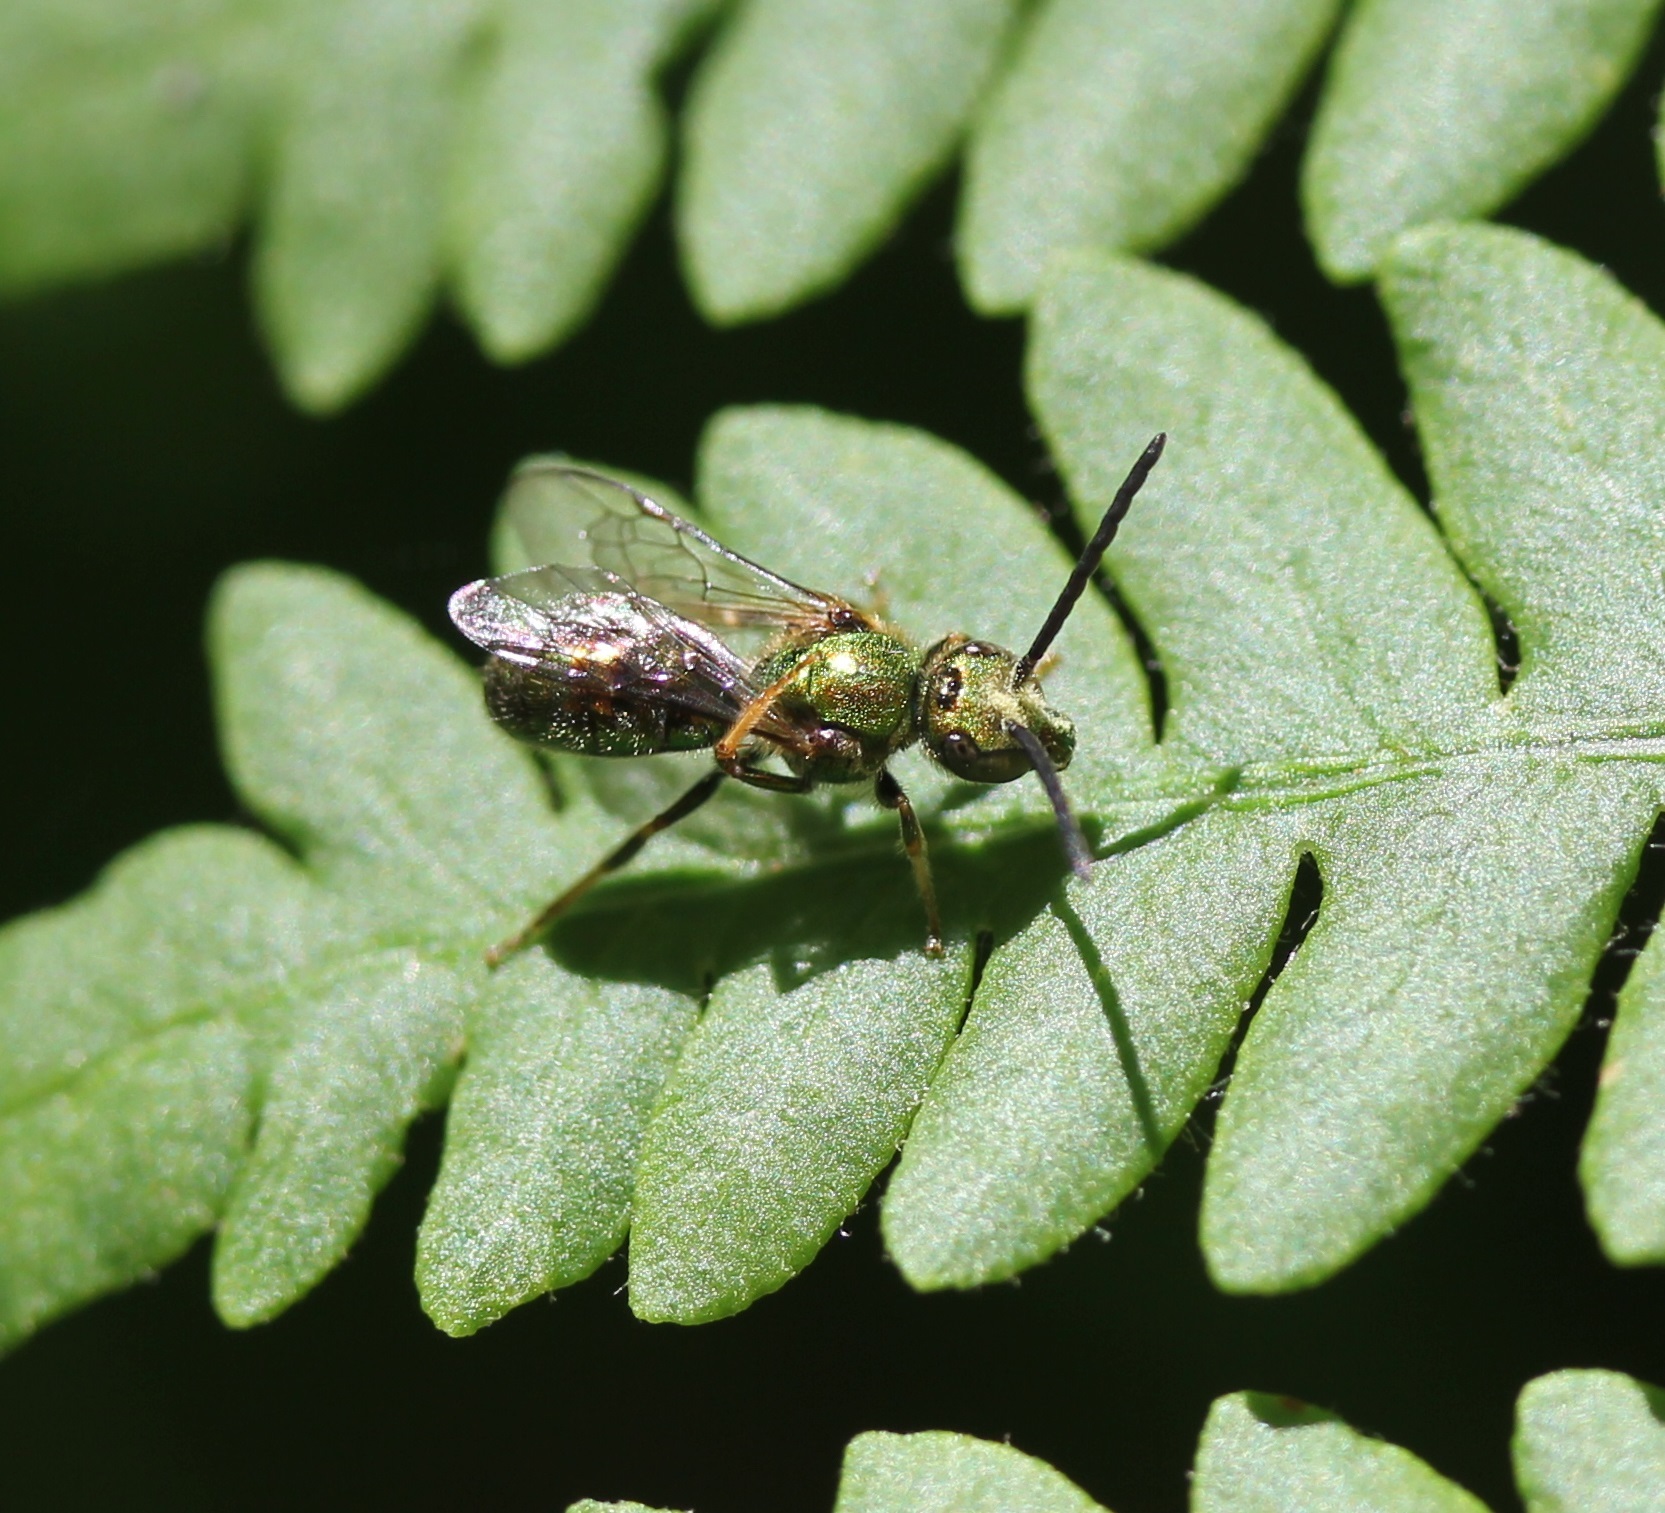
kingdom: Animalia
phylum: Arthropoda
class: Insecta
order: Hymenoptera
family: Halictidae
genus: Augochlorella
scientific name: Augochlorella aurata
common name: Golden sweat bee
